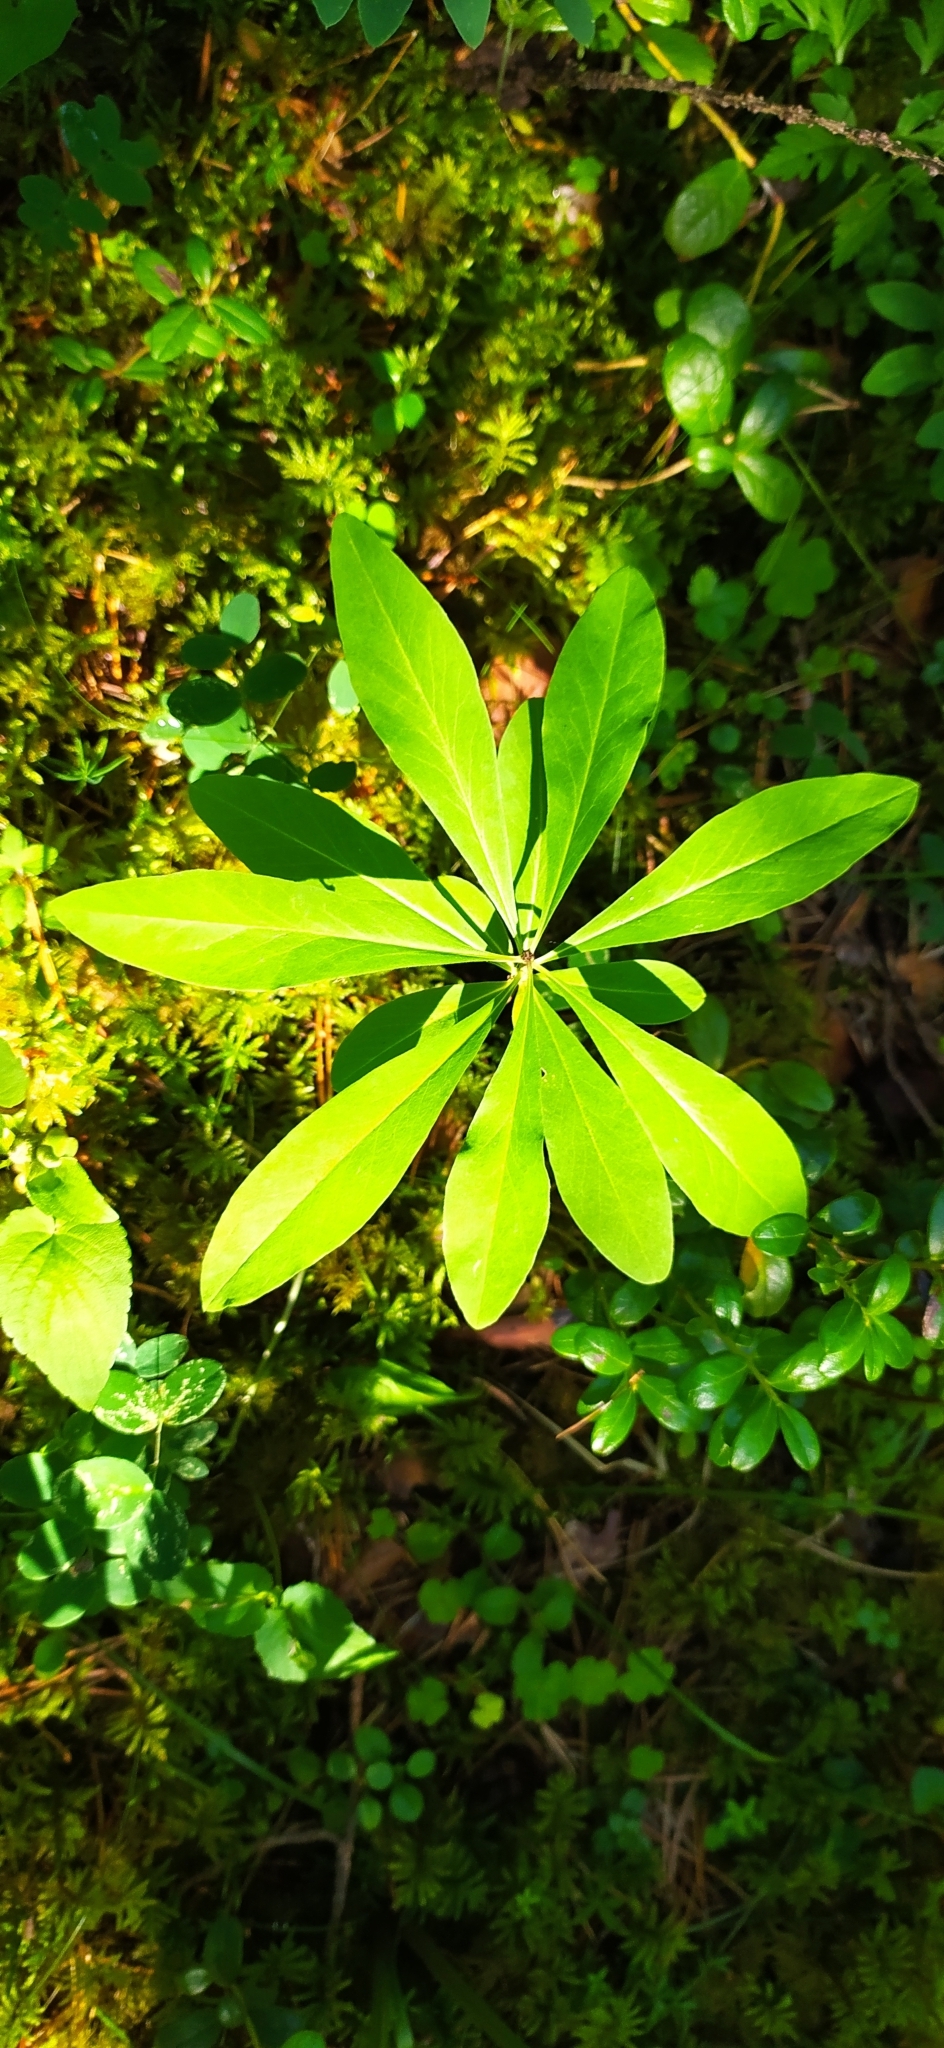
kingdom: Plantae
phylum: Tracheophyta
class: Magnoliopsida
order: Malvales
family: Thymelaeaceae
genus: Daphne
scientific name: Daphne mezereum
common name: Mezereon
